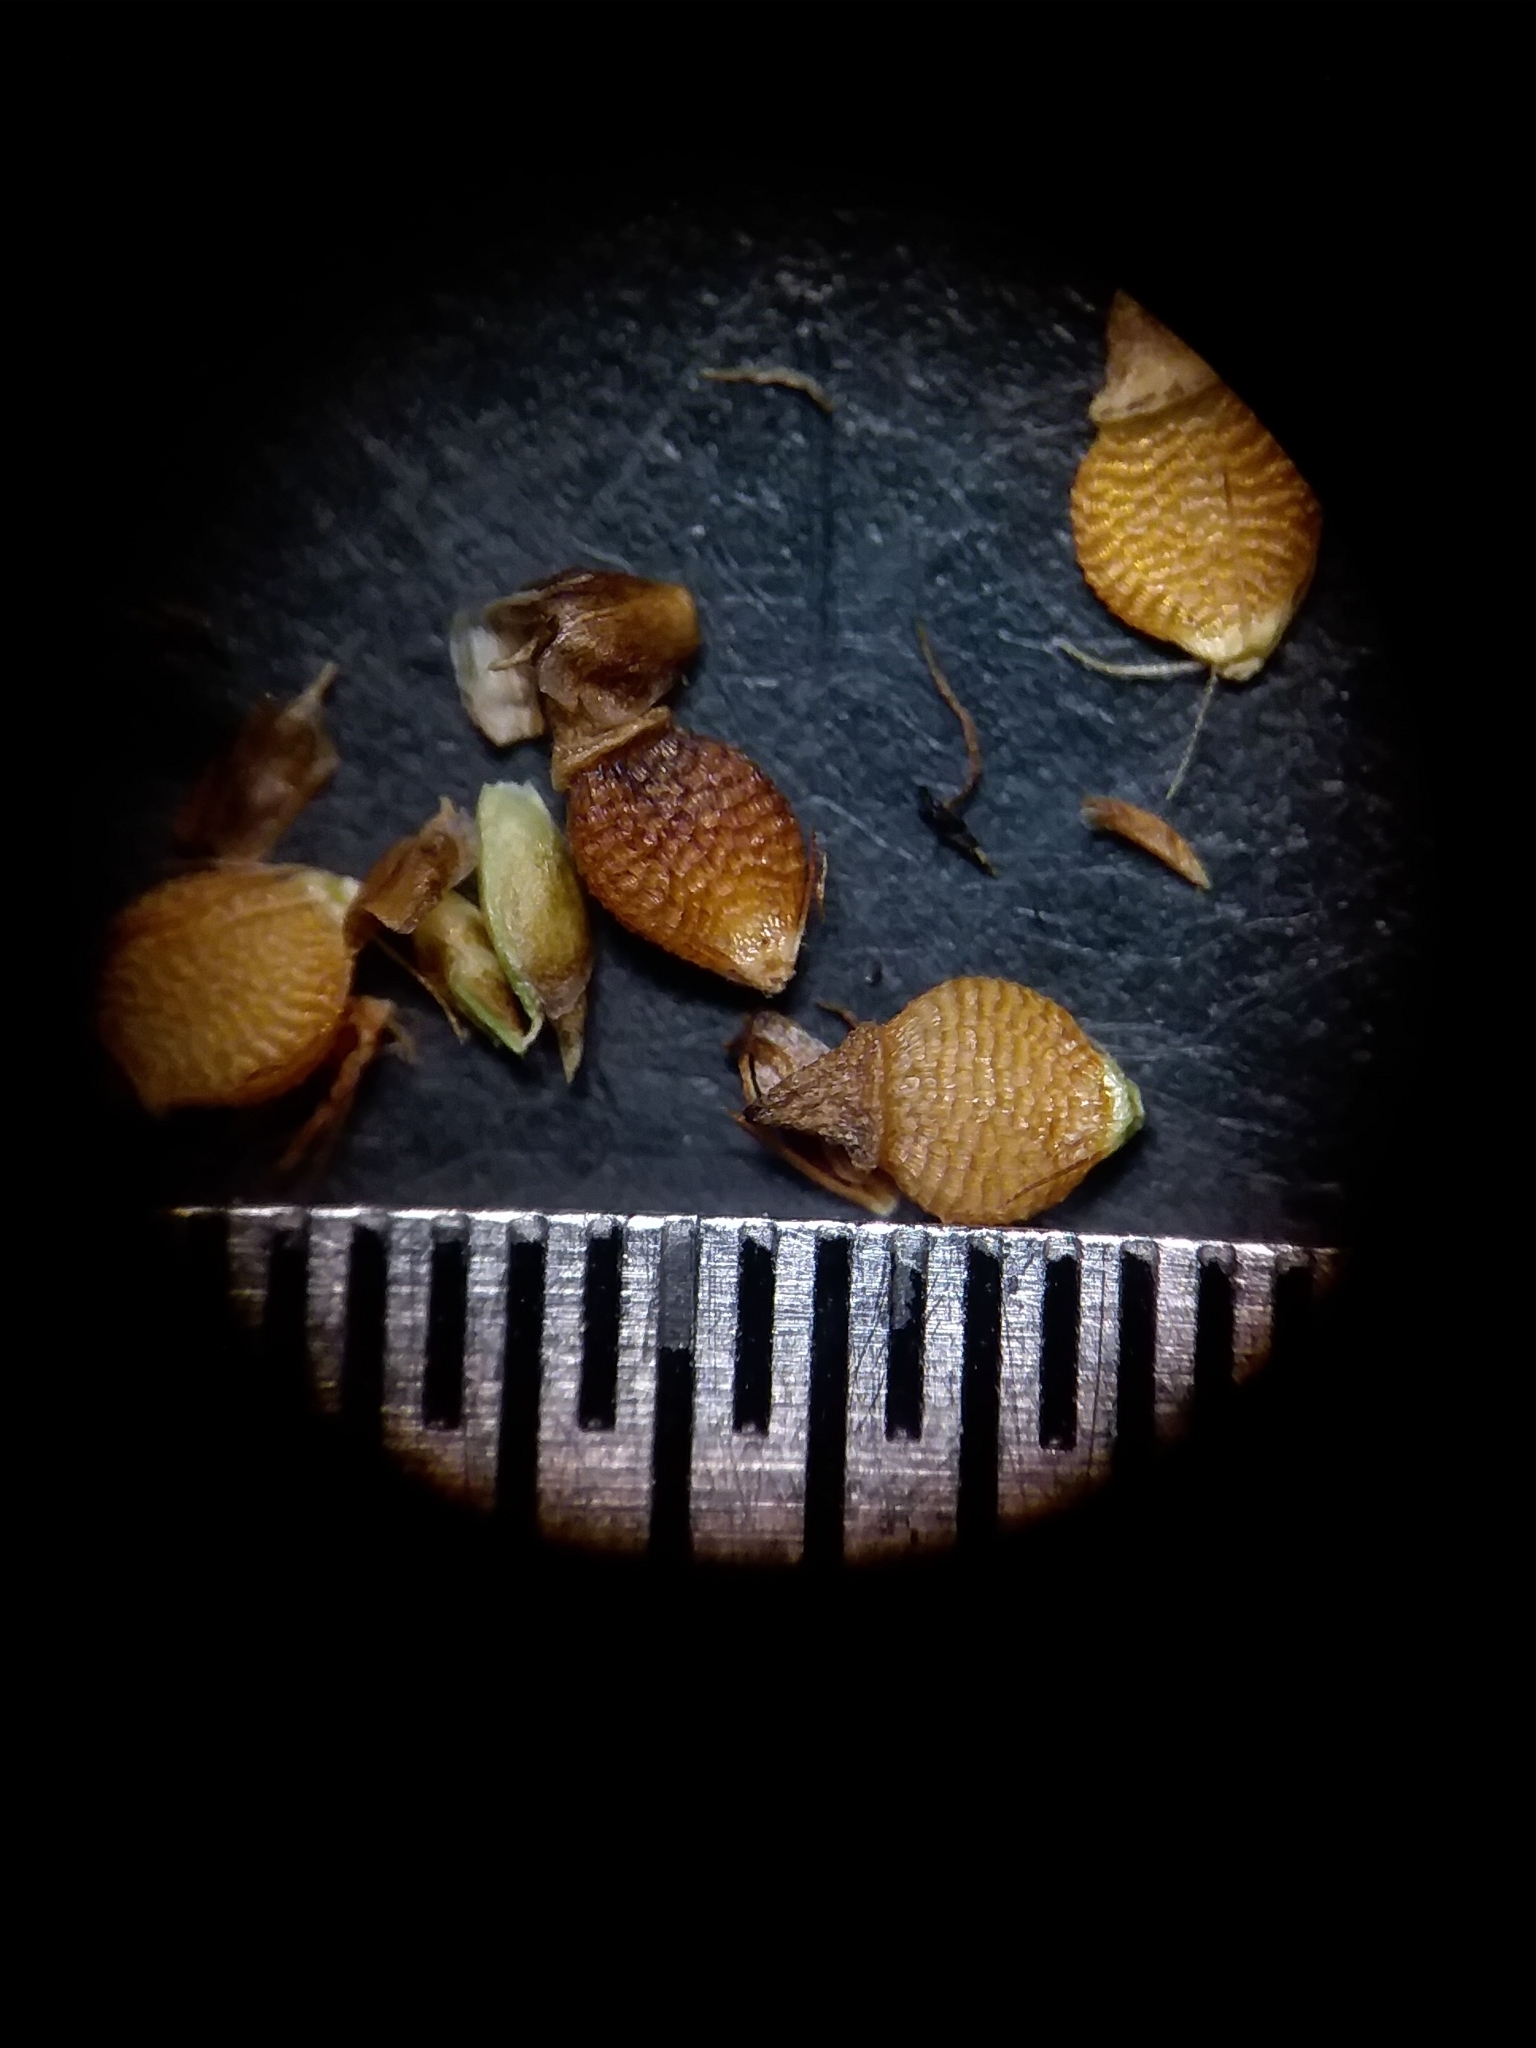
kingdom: Plantae
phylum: Tracheophyta
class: Liliopsida
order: Poales
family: Cyperaceae
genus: Rhynchospora
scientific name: Rhynchospora compressa
